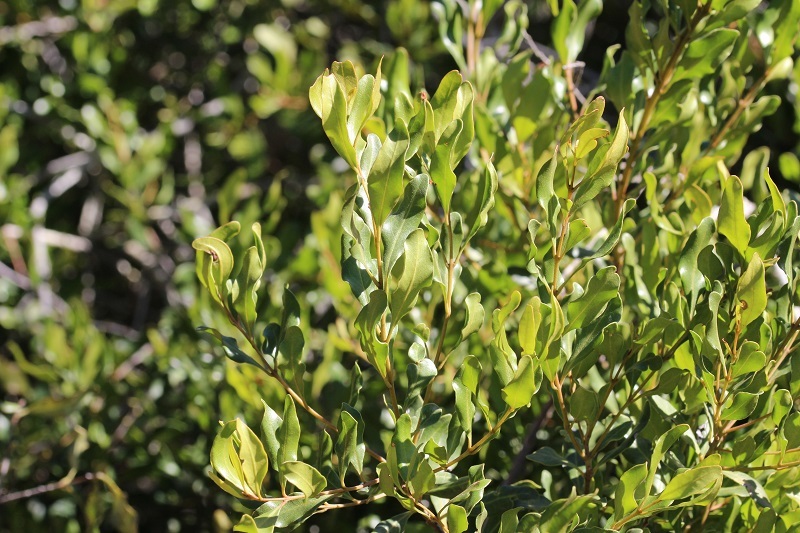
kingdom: Plantae
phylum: Tracheophyta
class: Magnoliopsida
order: Ericales
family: Ebenaceae
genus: Euclea
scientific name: Euclea undulata
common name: Small-leaved guarri
